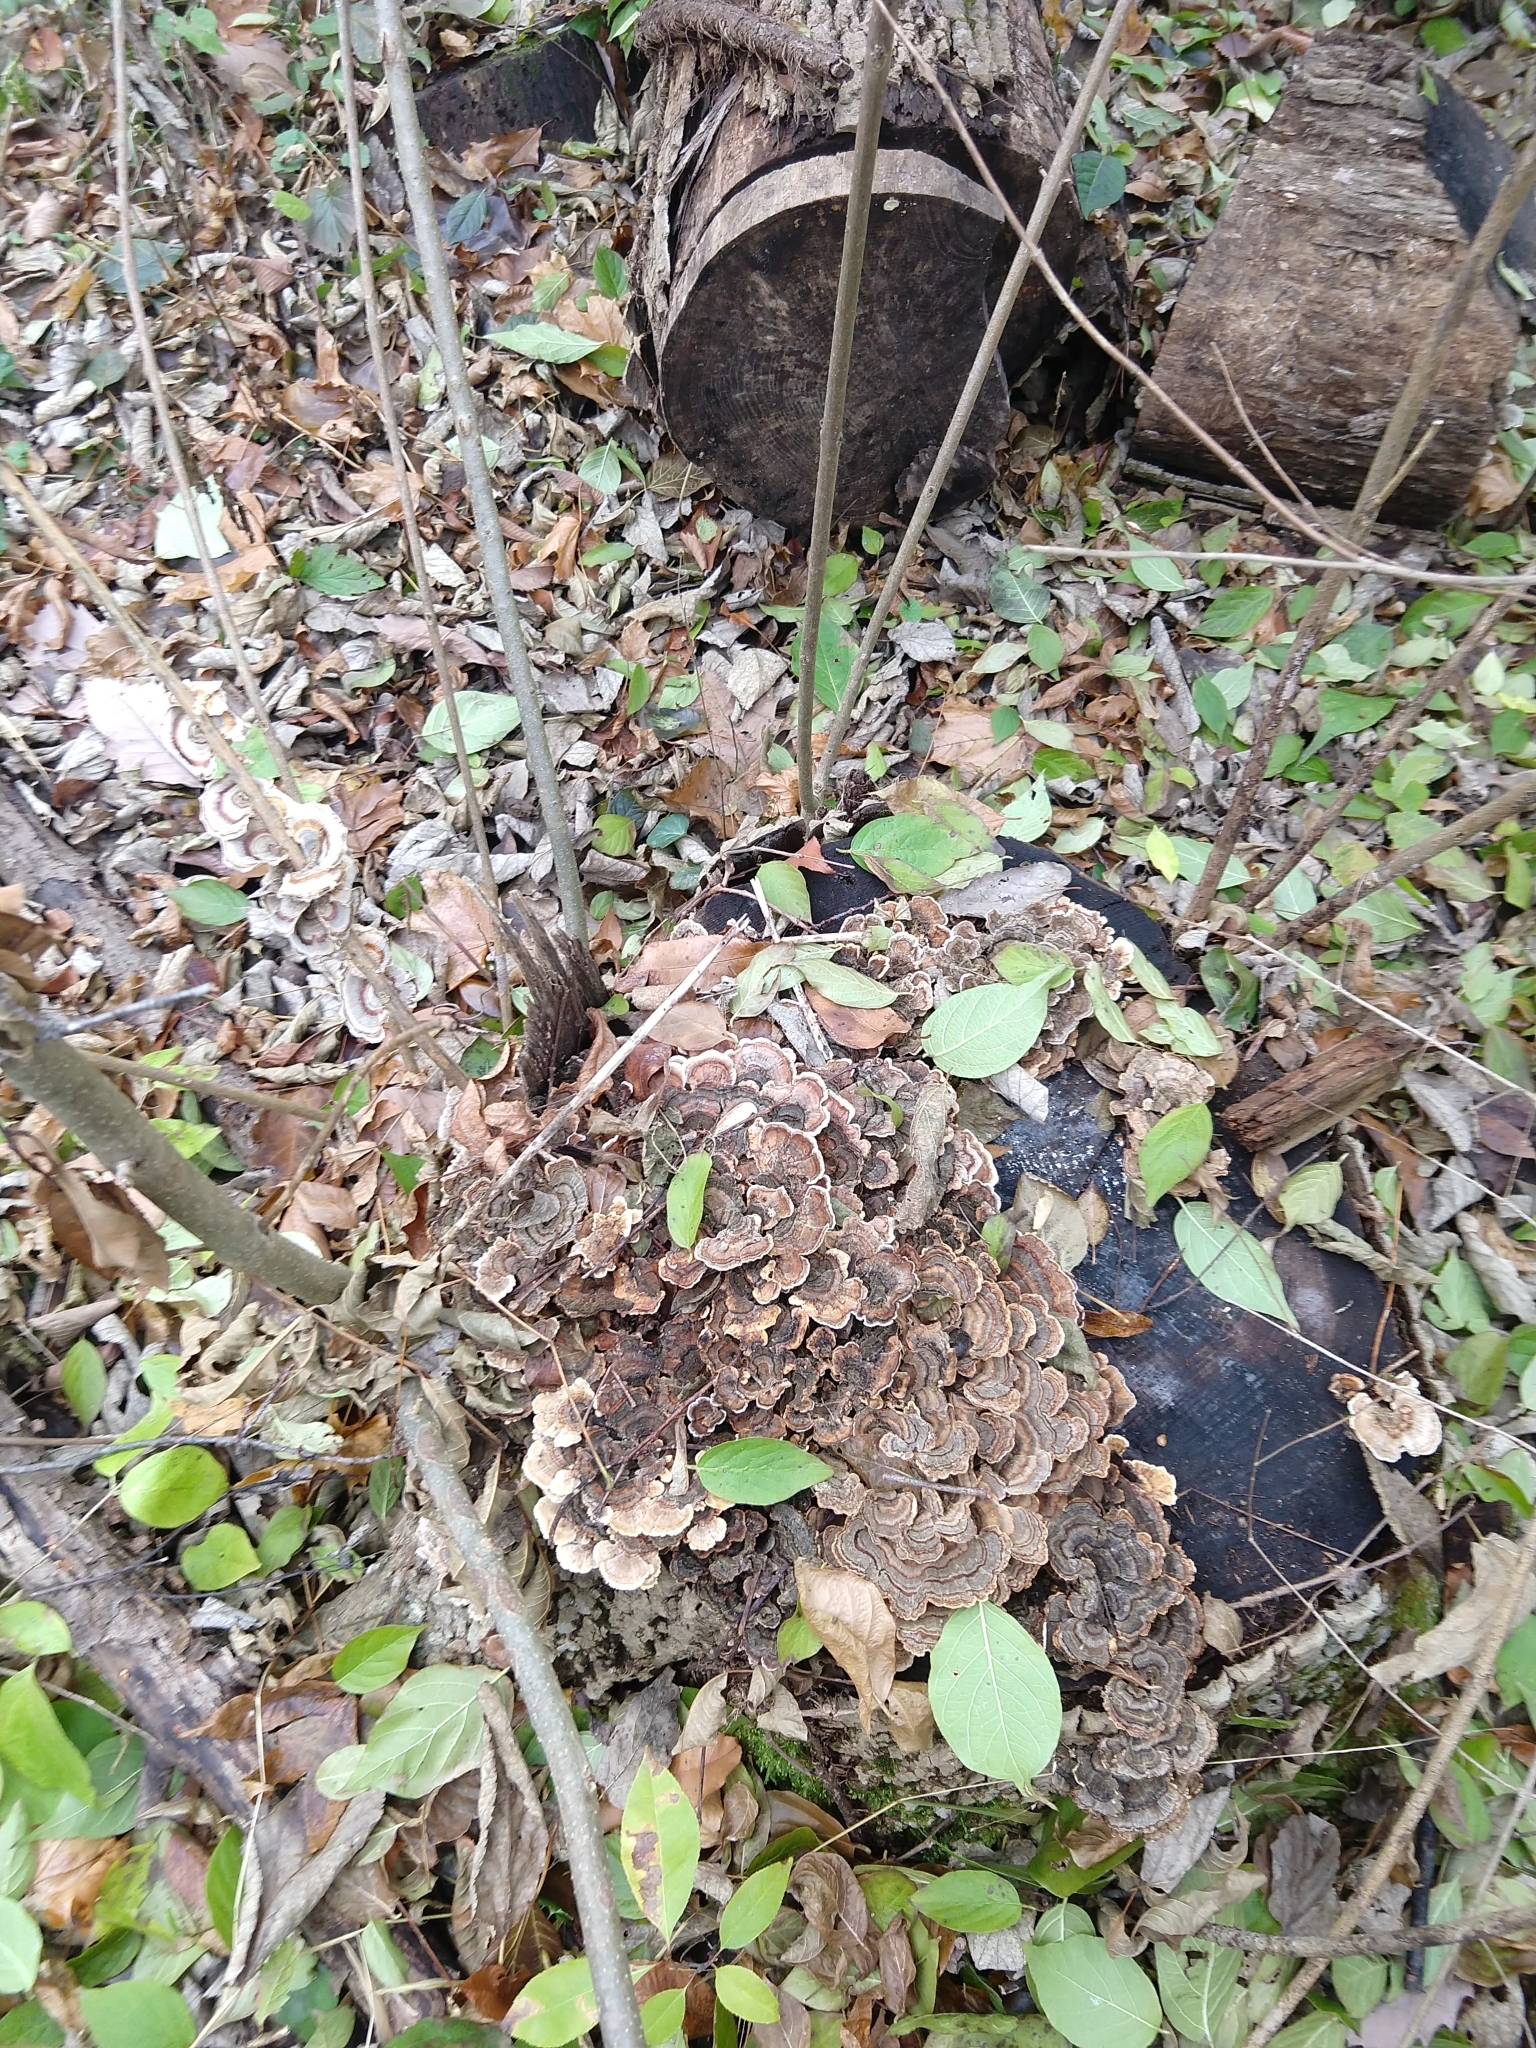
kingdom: Fungi
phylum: Basidiomycota
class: Agaricomycetes
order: Polyporales
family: Polyporaceae
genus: Trametes
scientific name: Trametes versicolor
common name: Turkeytail
